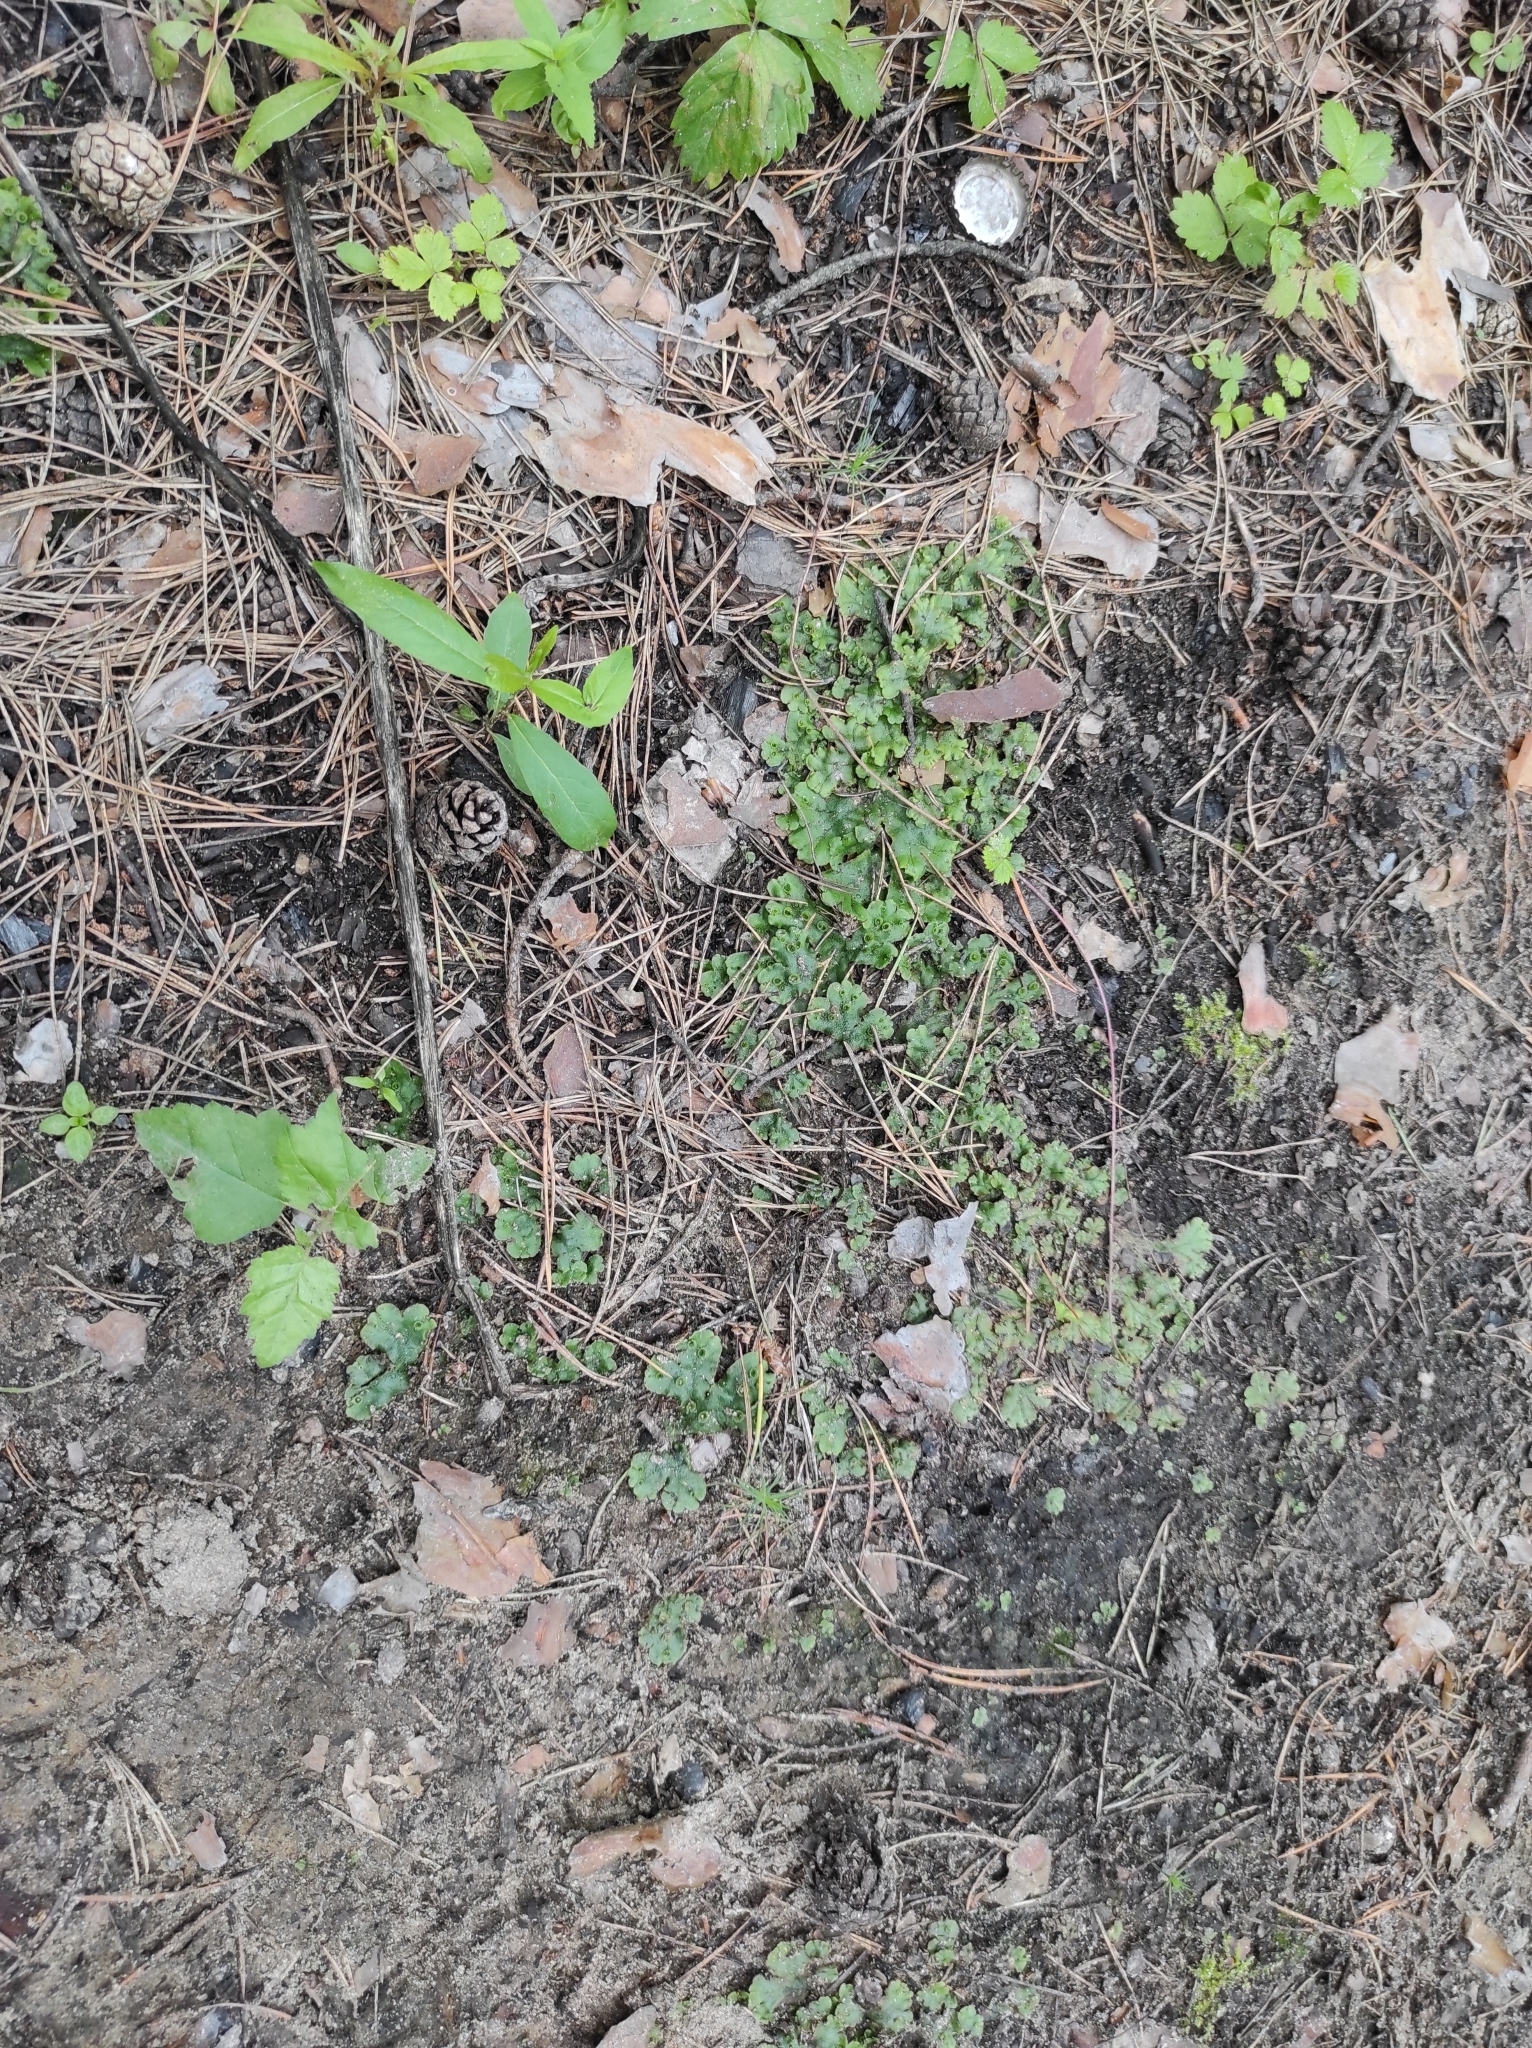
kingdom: Plantae
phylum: Marchantiophyta
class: Marchantiopsida
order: Marchantiales
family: Marchantiaceae
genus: Marchantia
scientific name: Marchantia polymorpha
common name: Common liverwort
